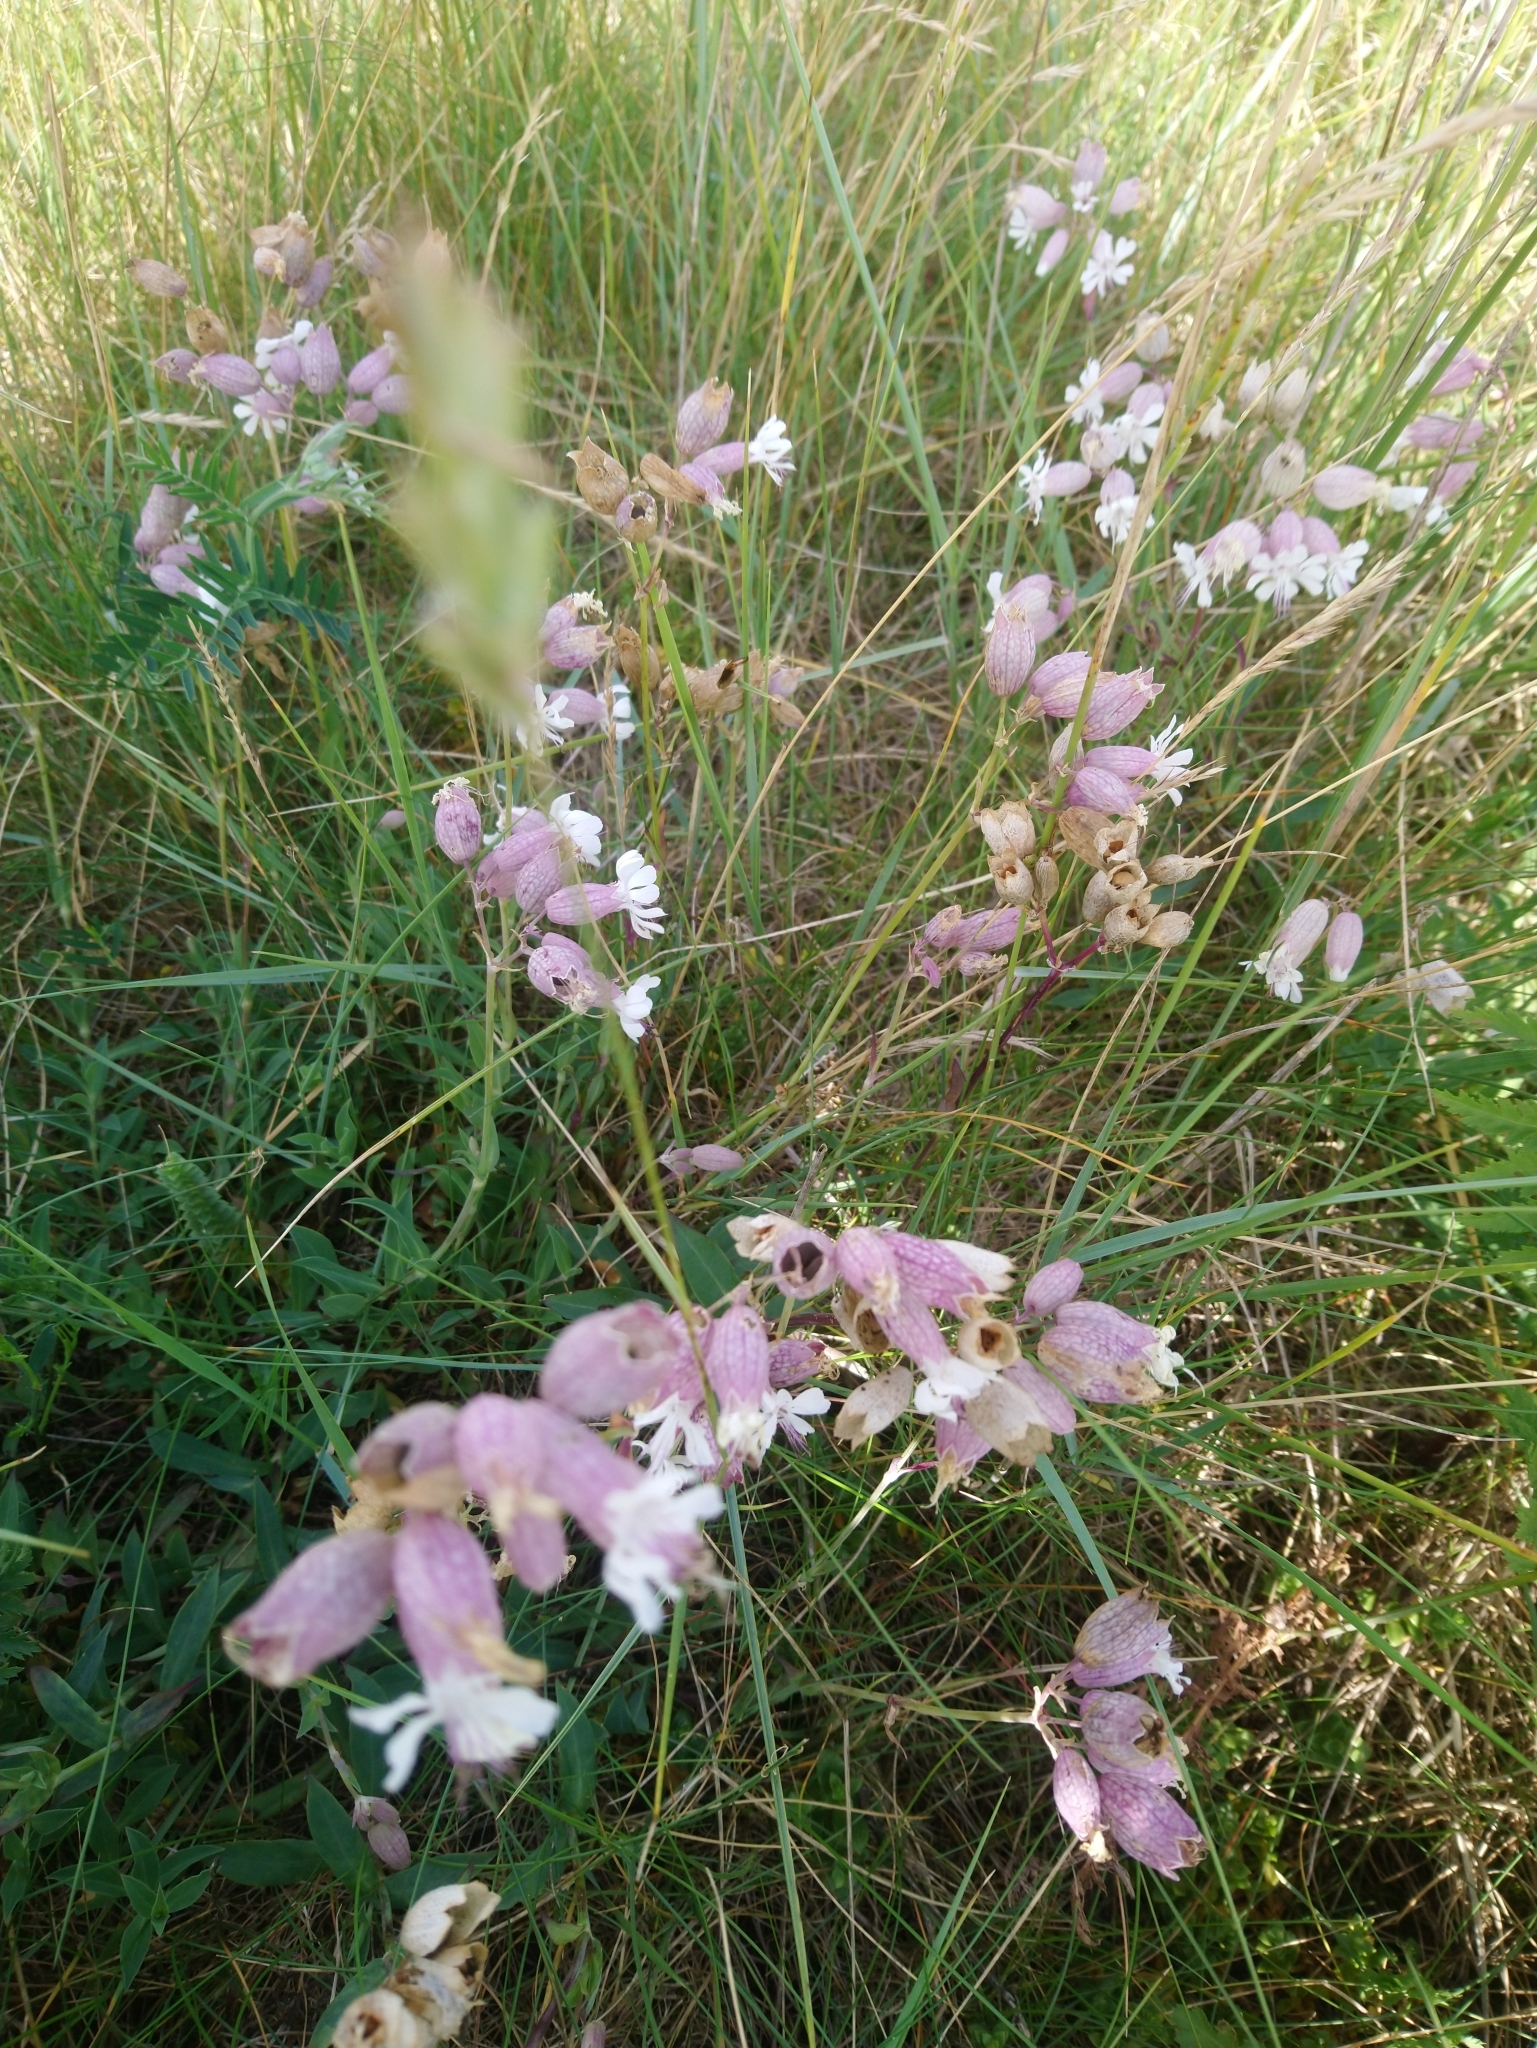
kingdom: Plantae
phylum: Tracheophyta
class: Magnoliopsida
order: Caryophyllales
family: Caryophyllaceae
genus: Silene
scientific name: Silene vulgaris
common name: Bladder campion
